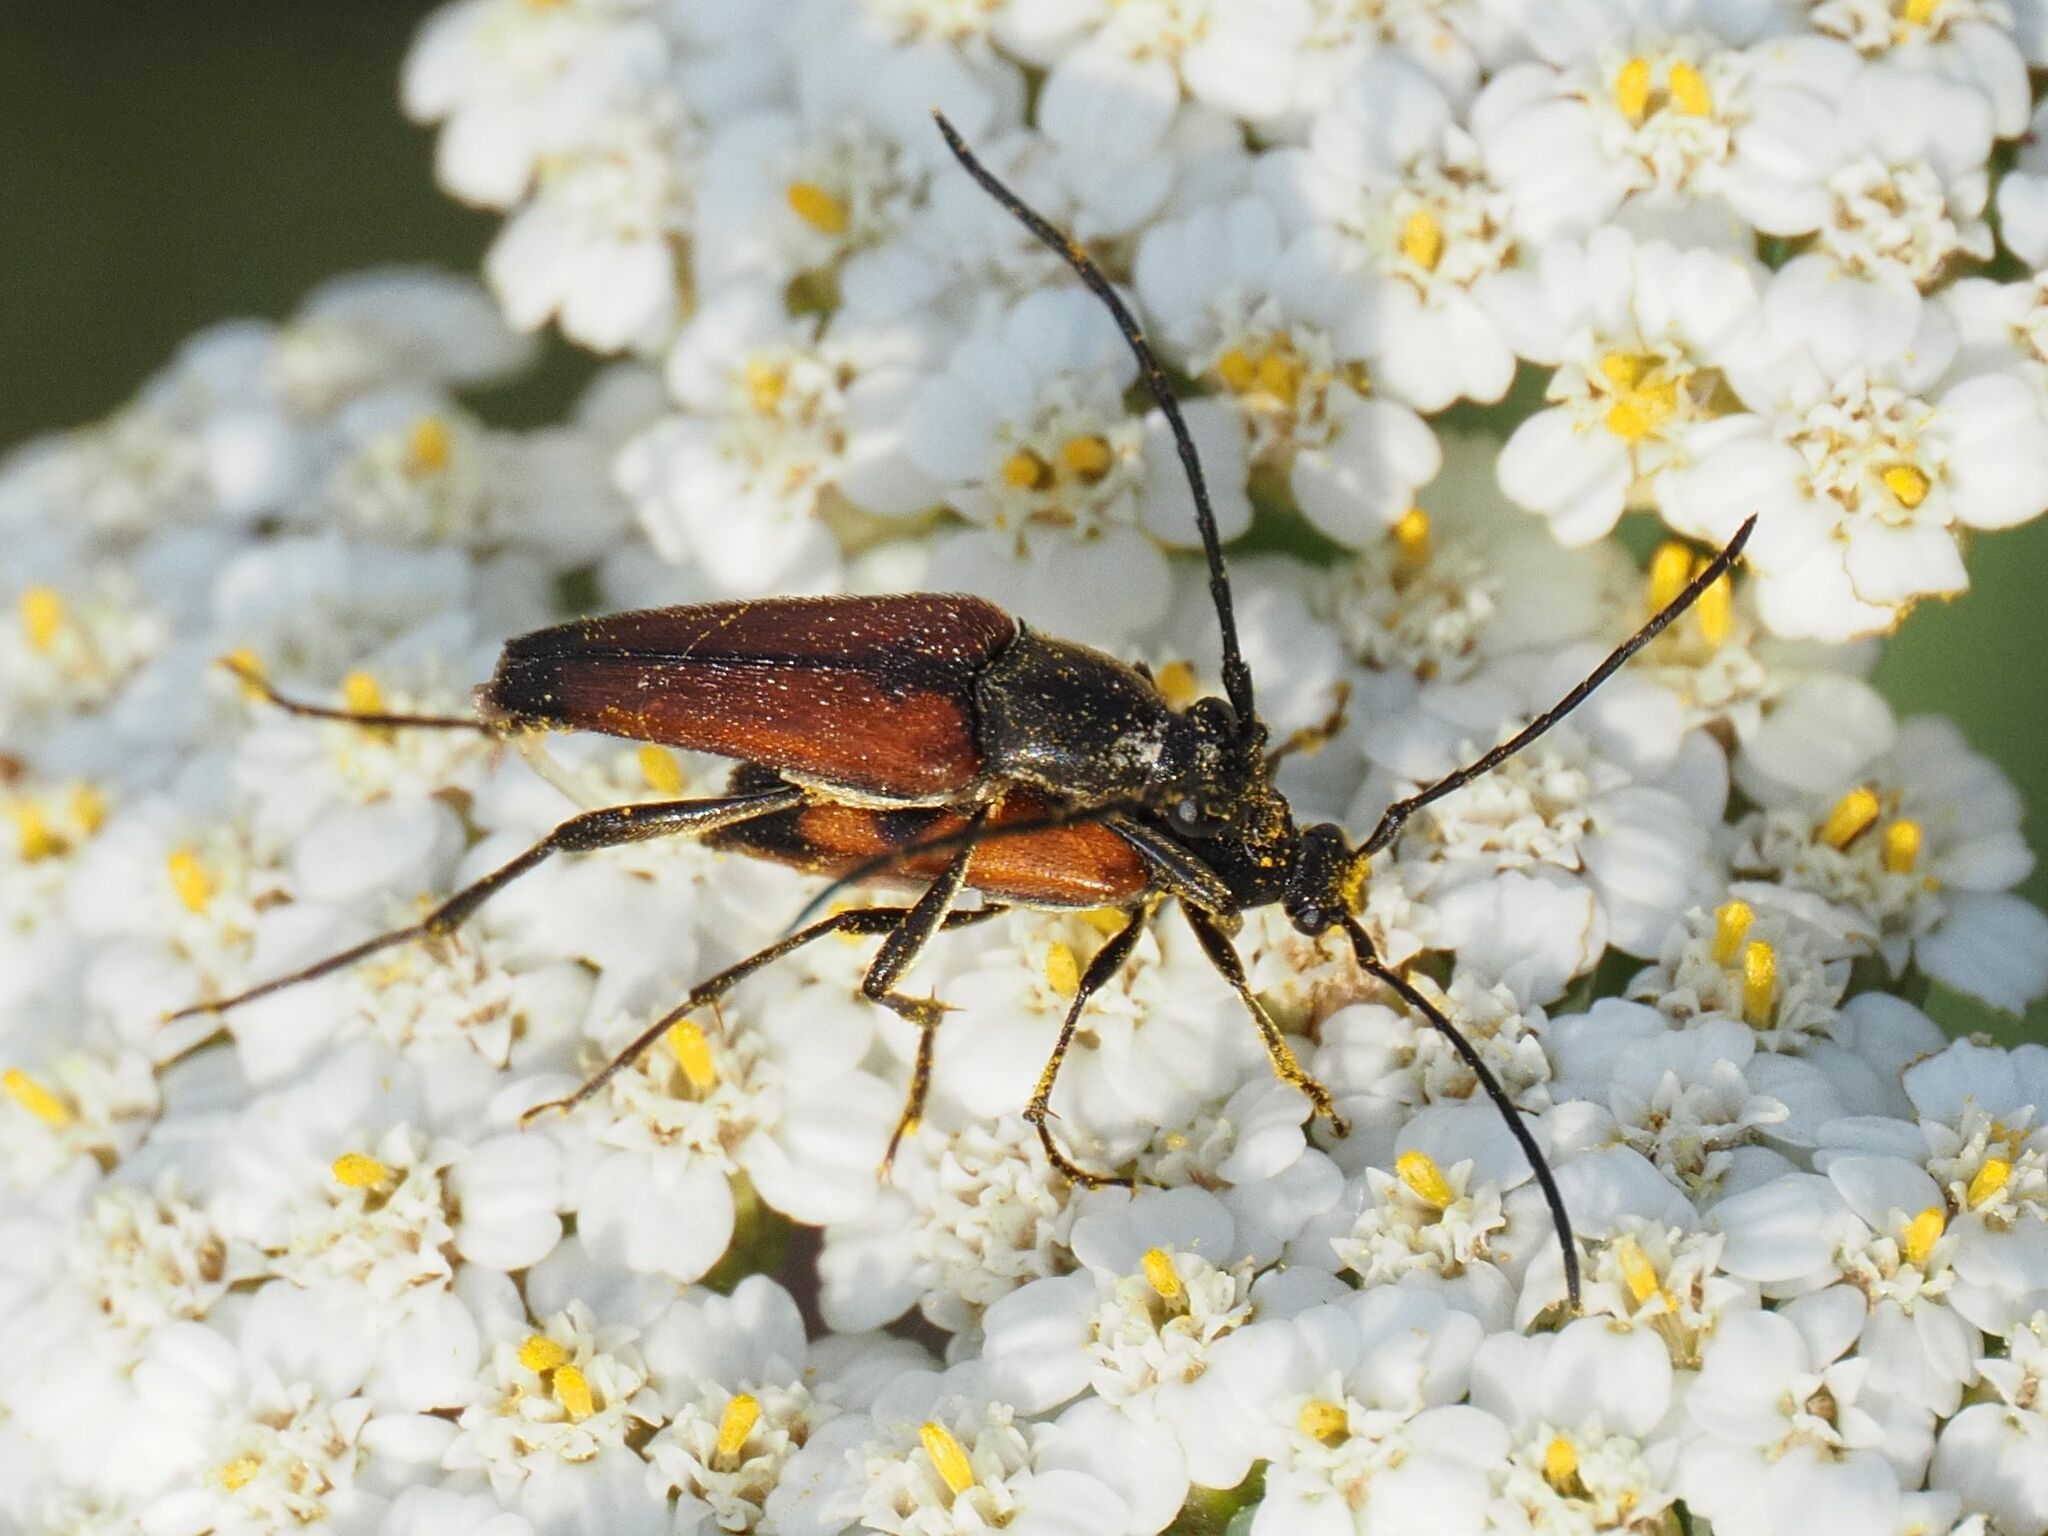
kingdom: Animalia
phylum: Arthropoda
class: Insecta
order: Coleoptera
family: Cerambycidae
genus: Stenurella
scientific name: Stenurella bifasciata
